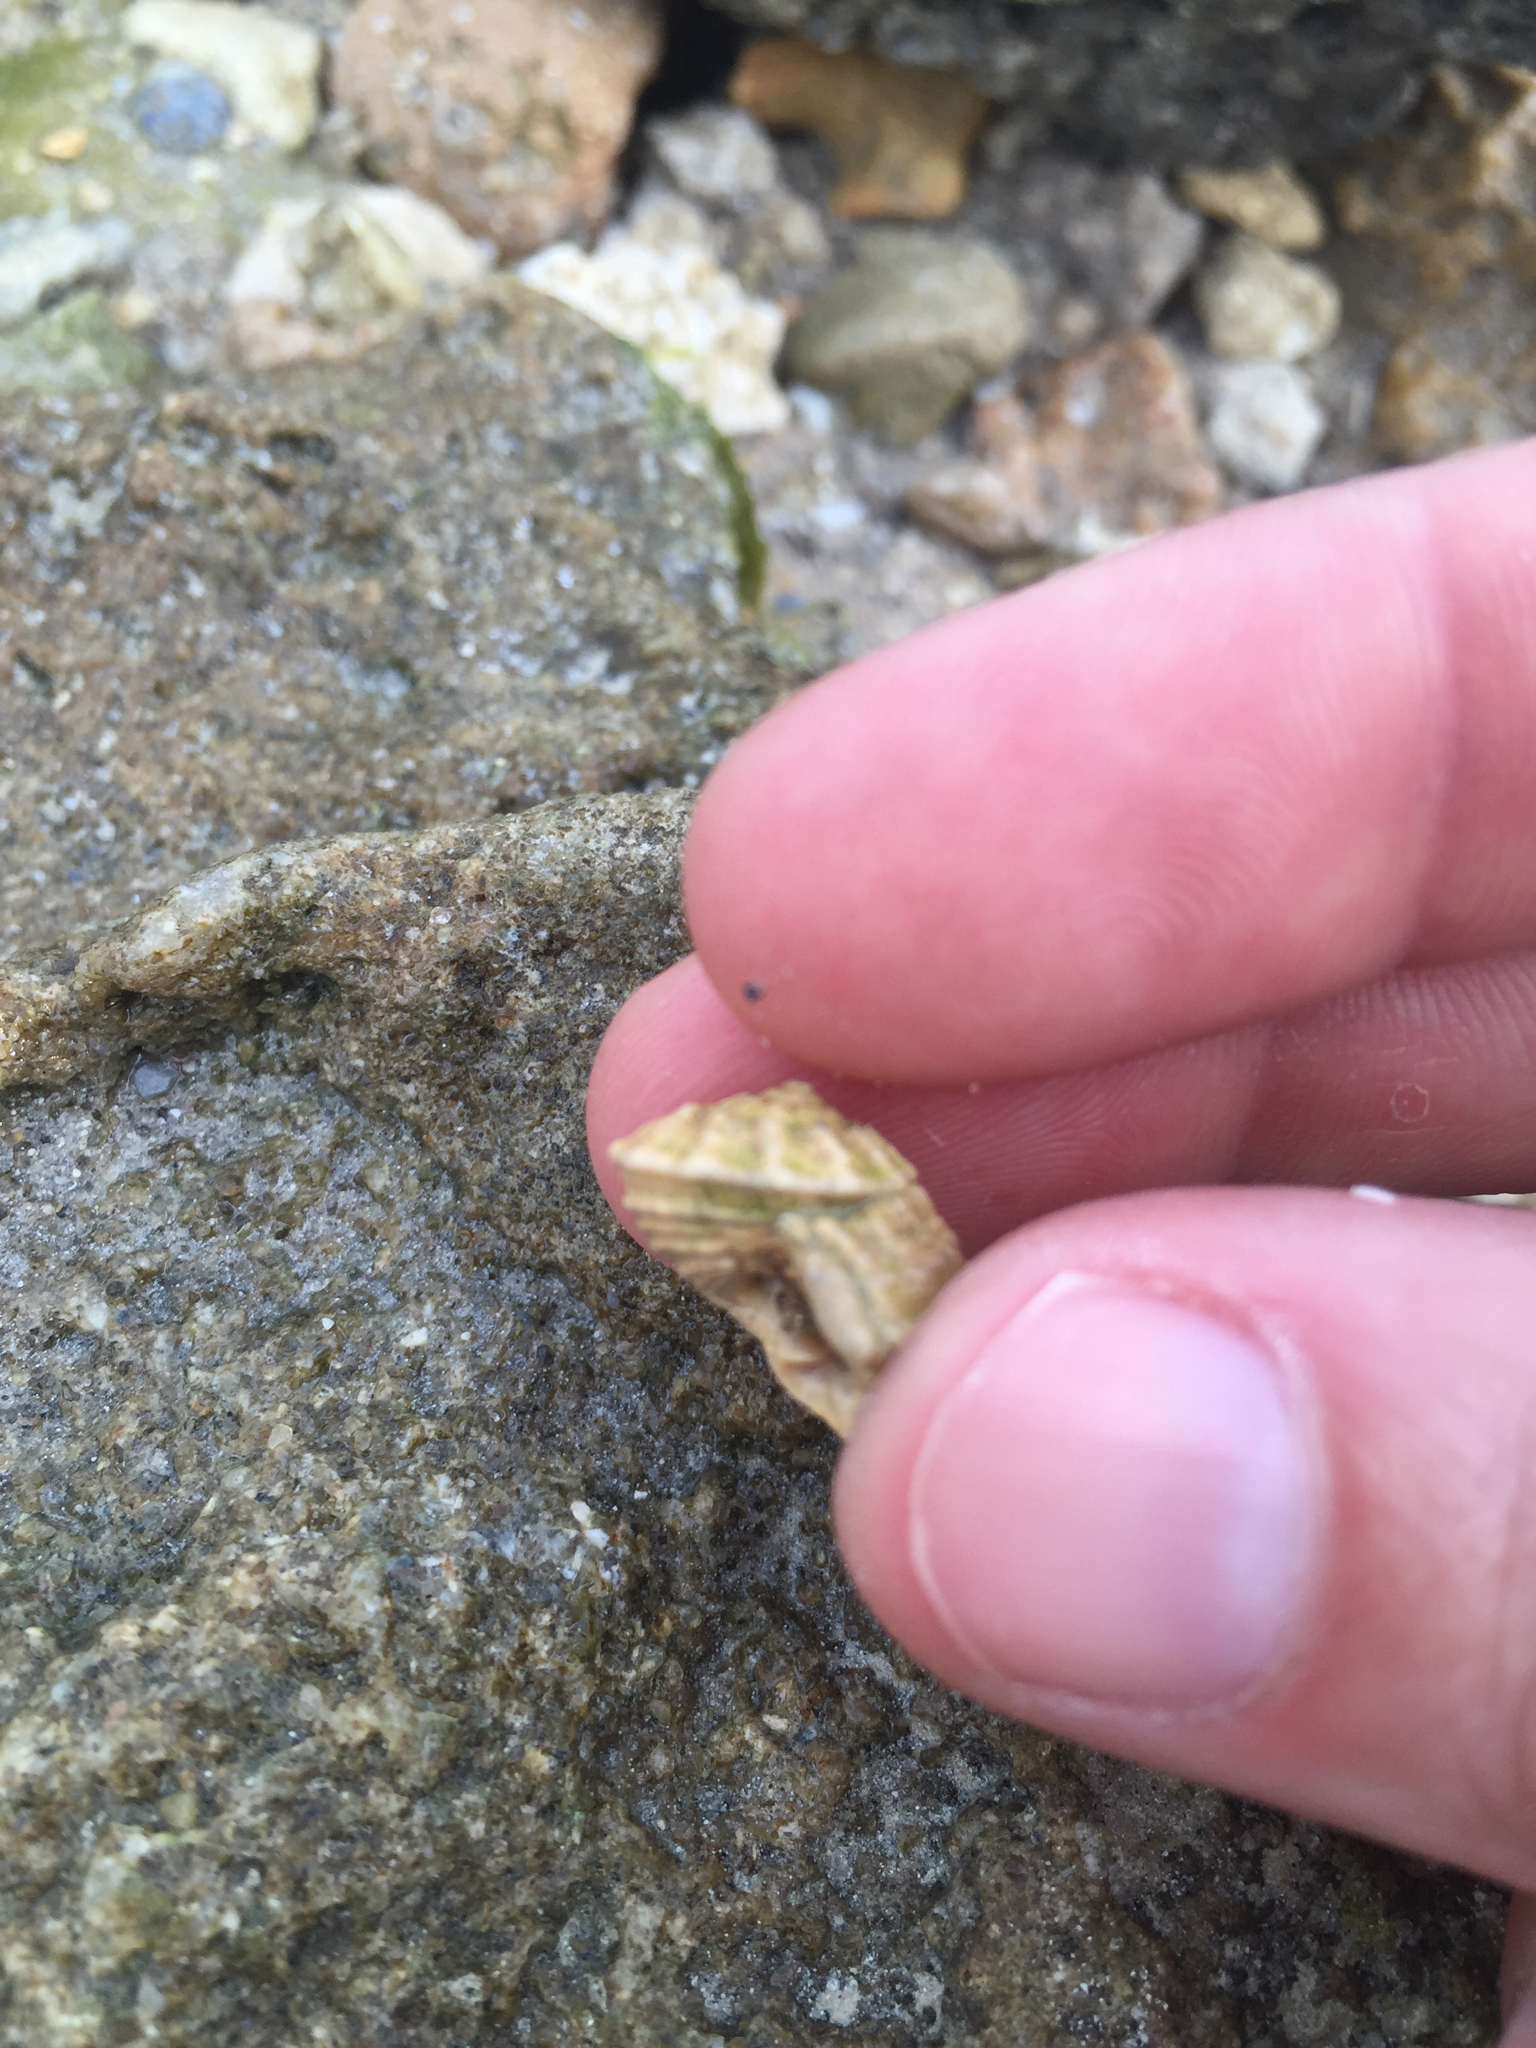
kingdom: Animalia
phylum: Mollusca
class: Gastropoda
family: Modulidae
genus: Modulus
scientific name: Modulus modulus
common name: Atlantic modulus
